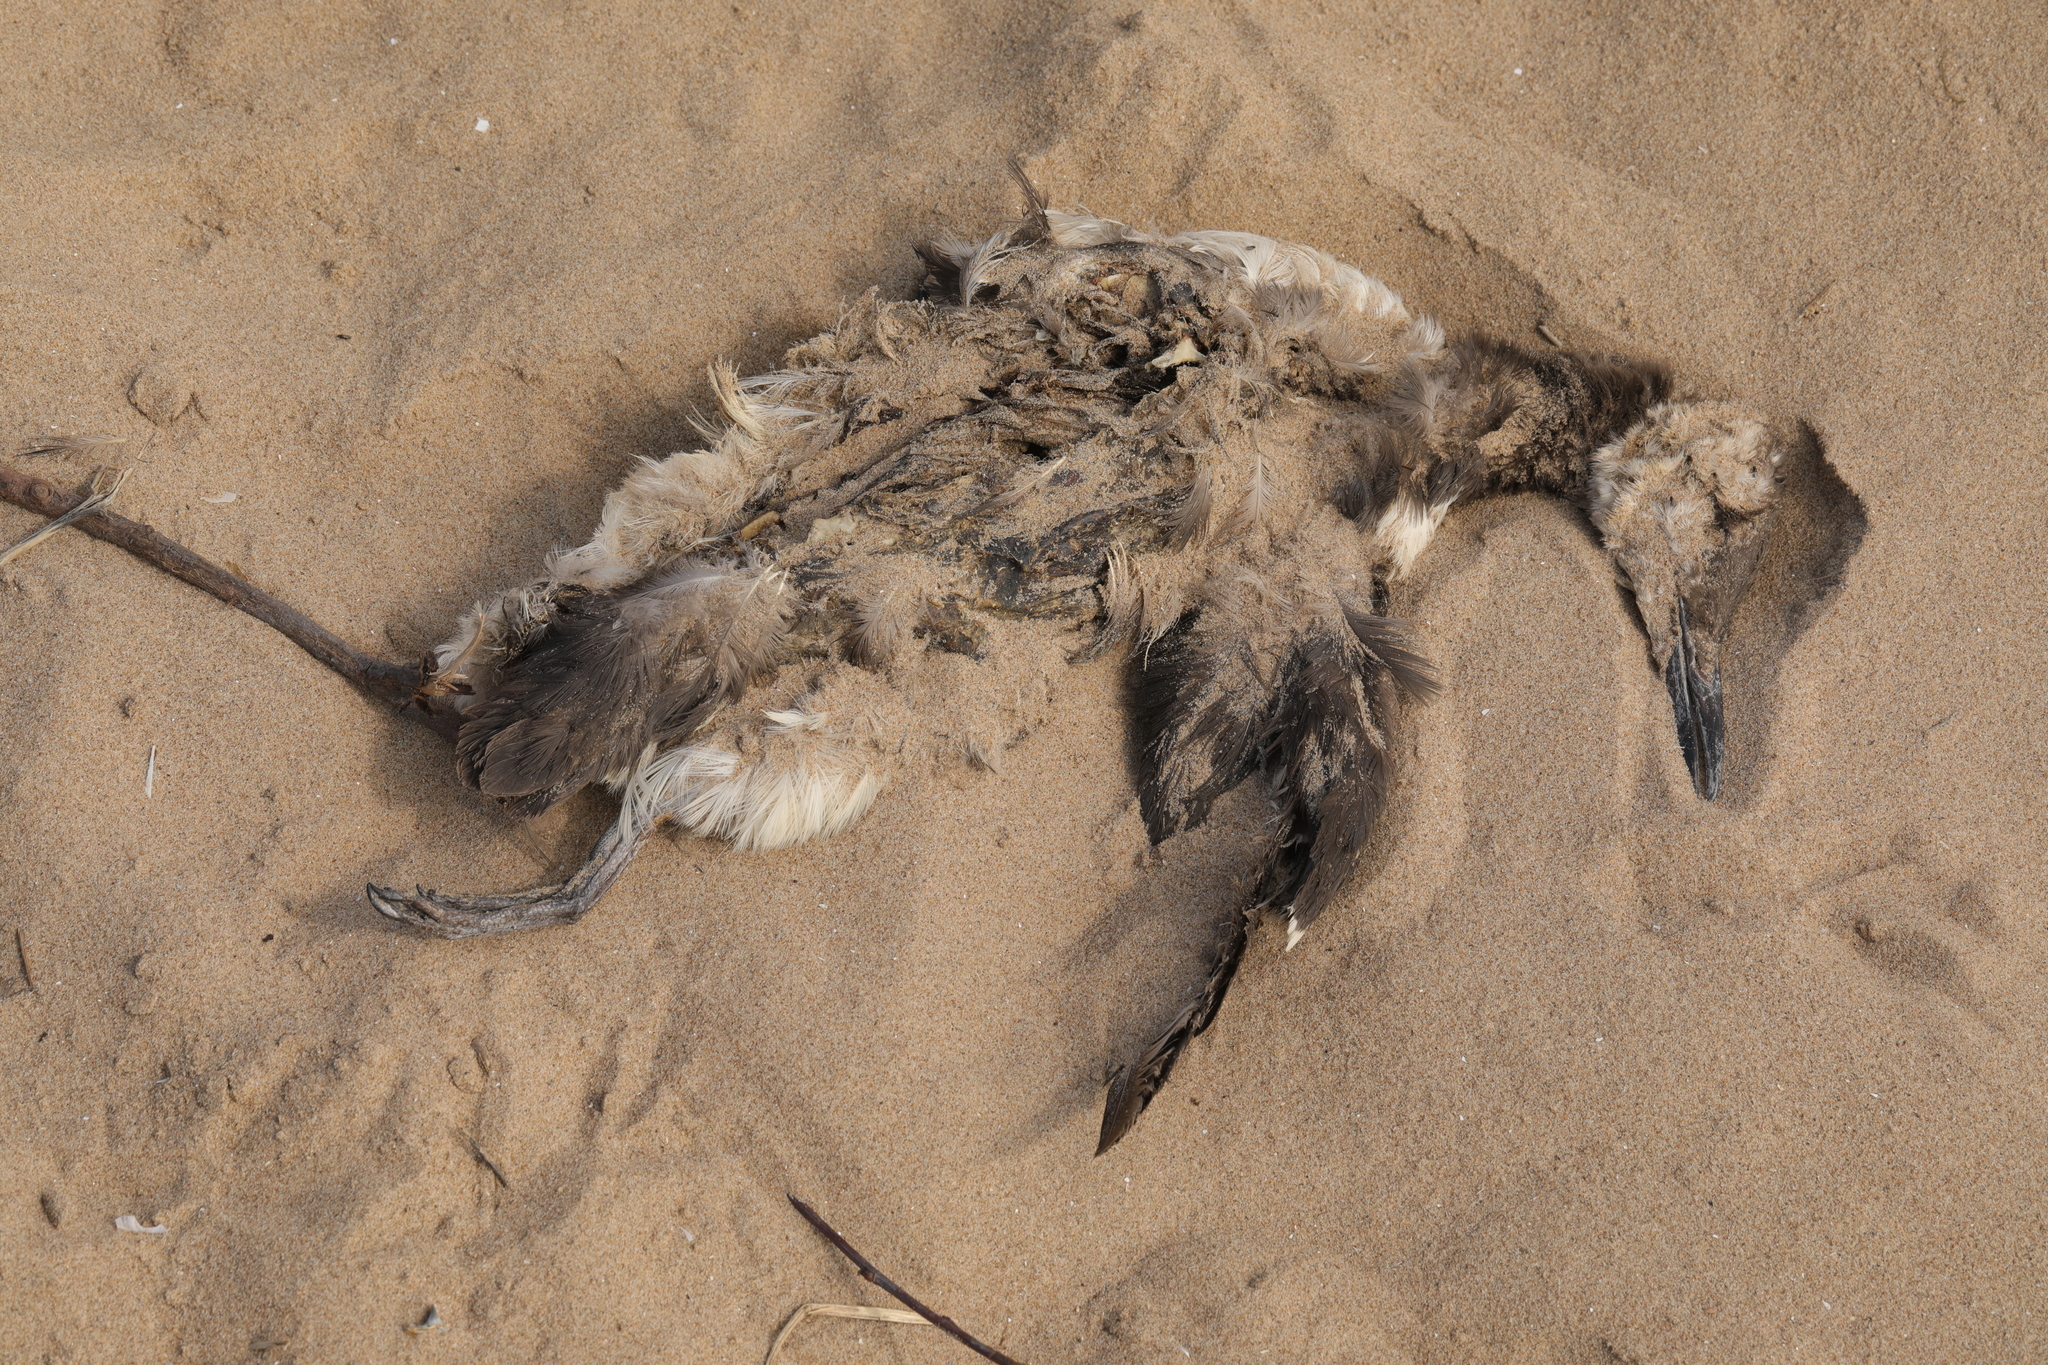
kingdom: Animalia
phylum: Chordata
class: Aves
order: Charadriiformes
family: Alcidae
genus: Uria
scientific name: Uria aalge
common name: Common murre
